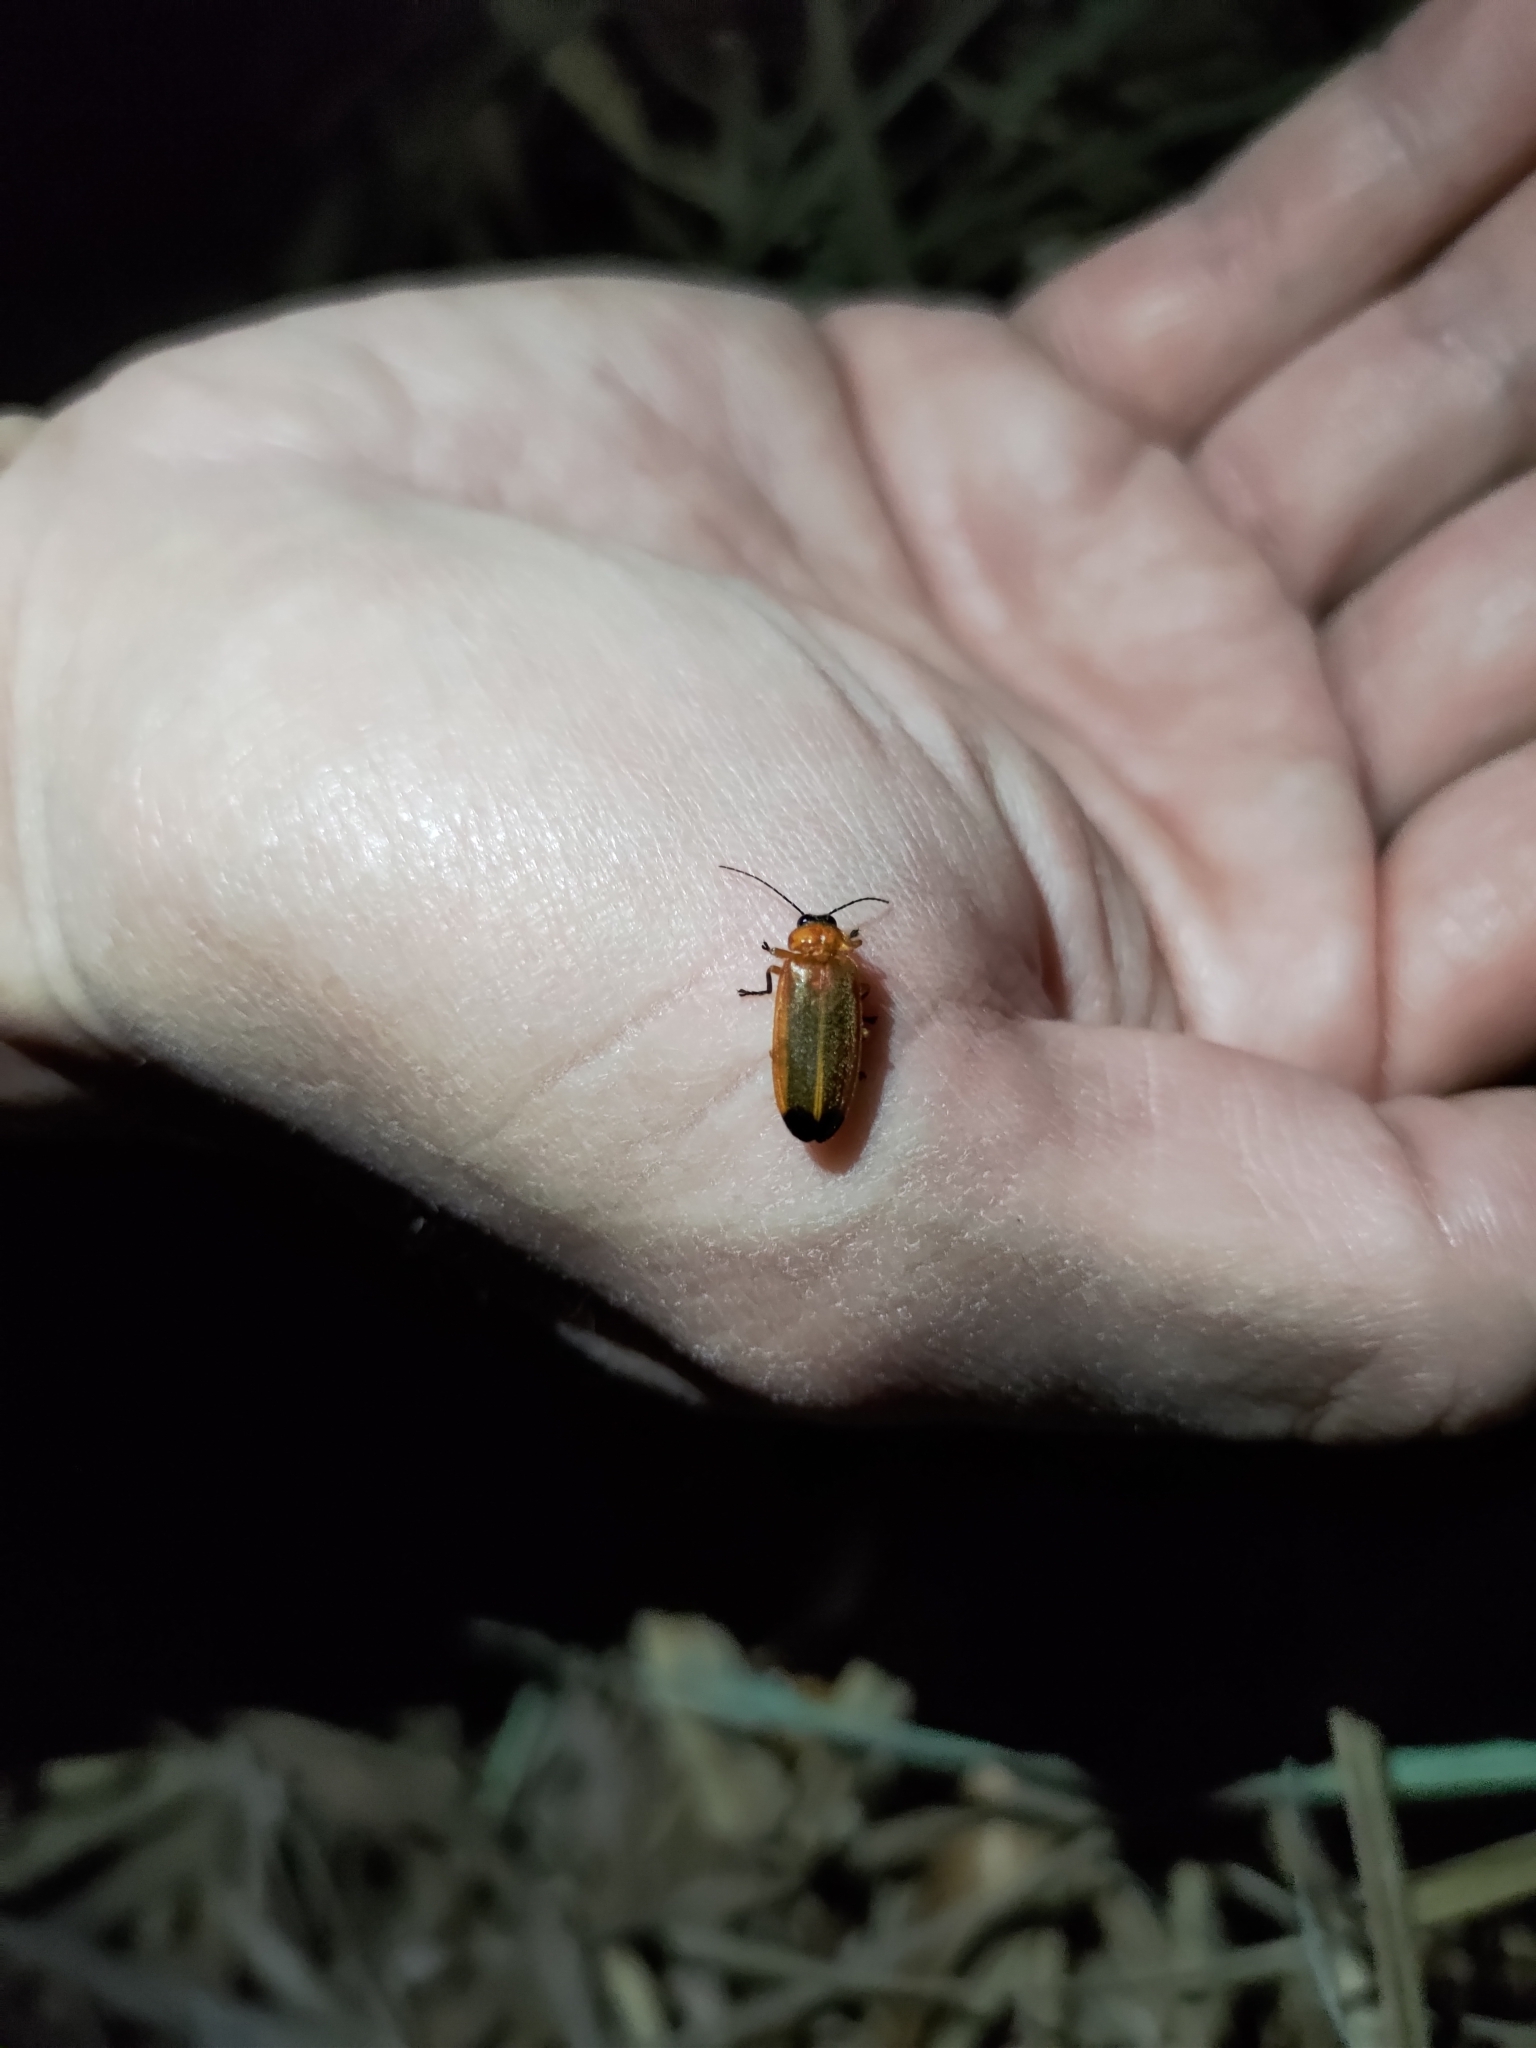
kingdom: Animalia
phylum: Arthropoda
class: Insecta
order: Coleoptera
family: Lampyridae
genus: Abscondita
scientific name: Abscondita chinensis
